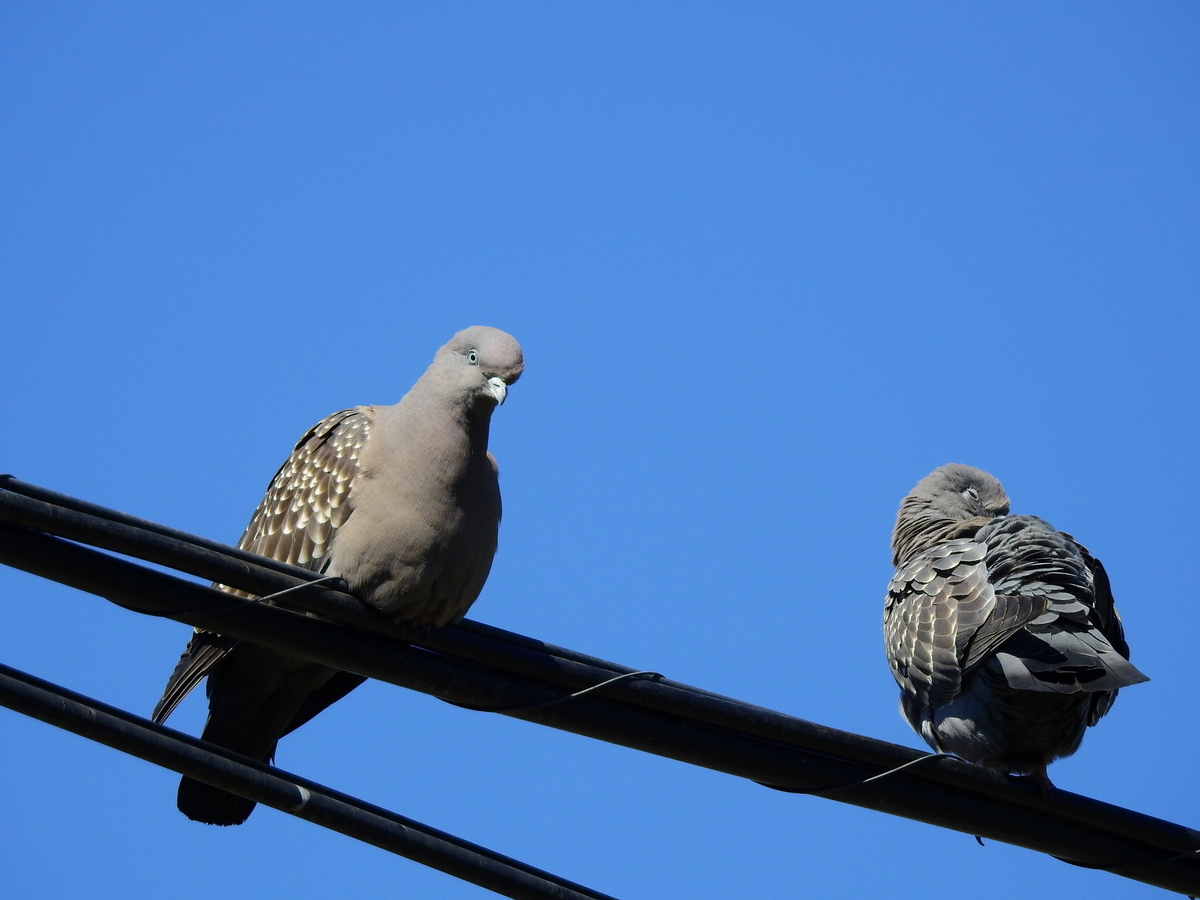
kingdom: Animalia
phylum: Chordata
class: Aves
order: Columbiformes
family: Columbidae
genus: Patagioenas
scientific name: Patagioenas maculosa
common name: Spot-winged pigeon
